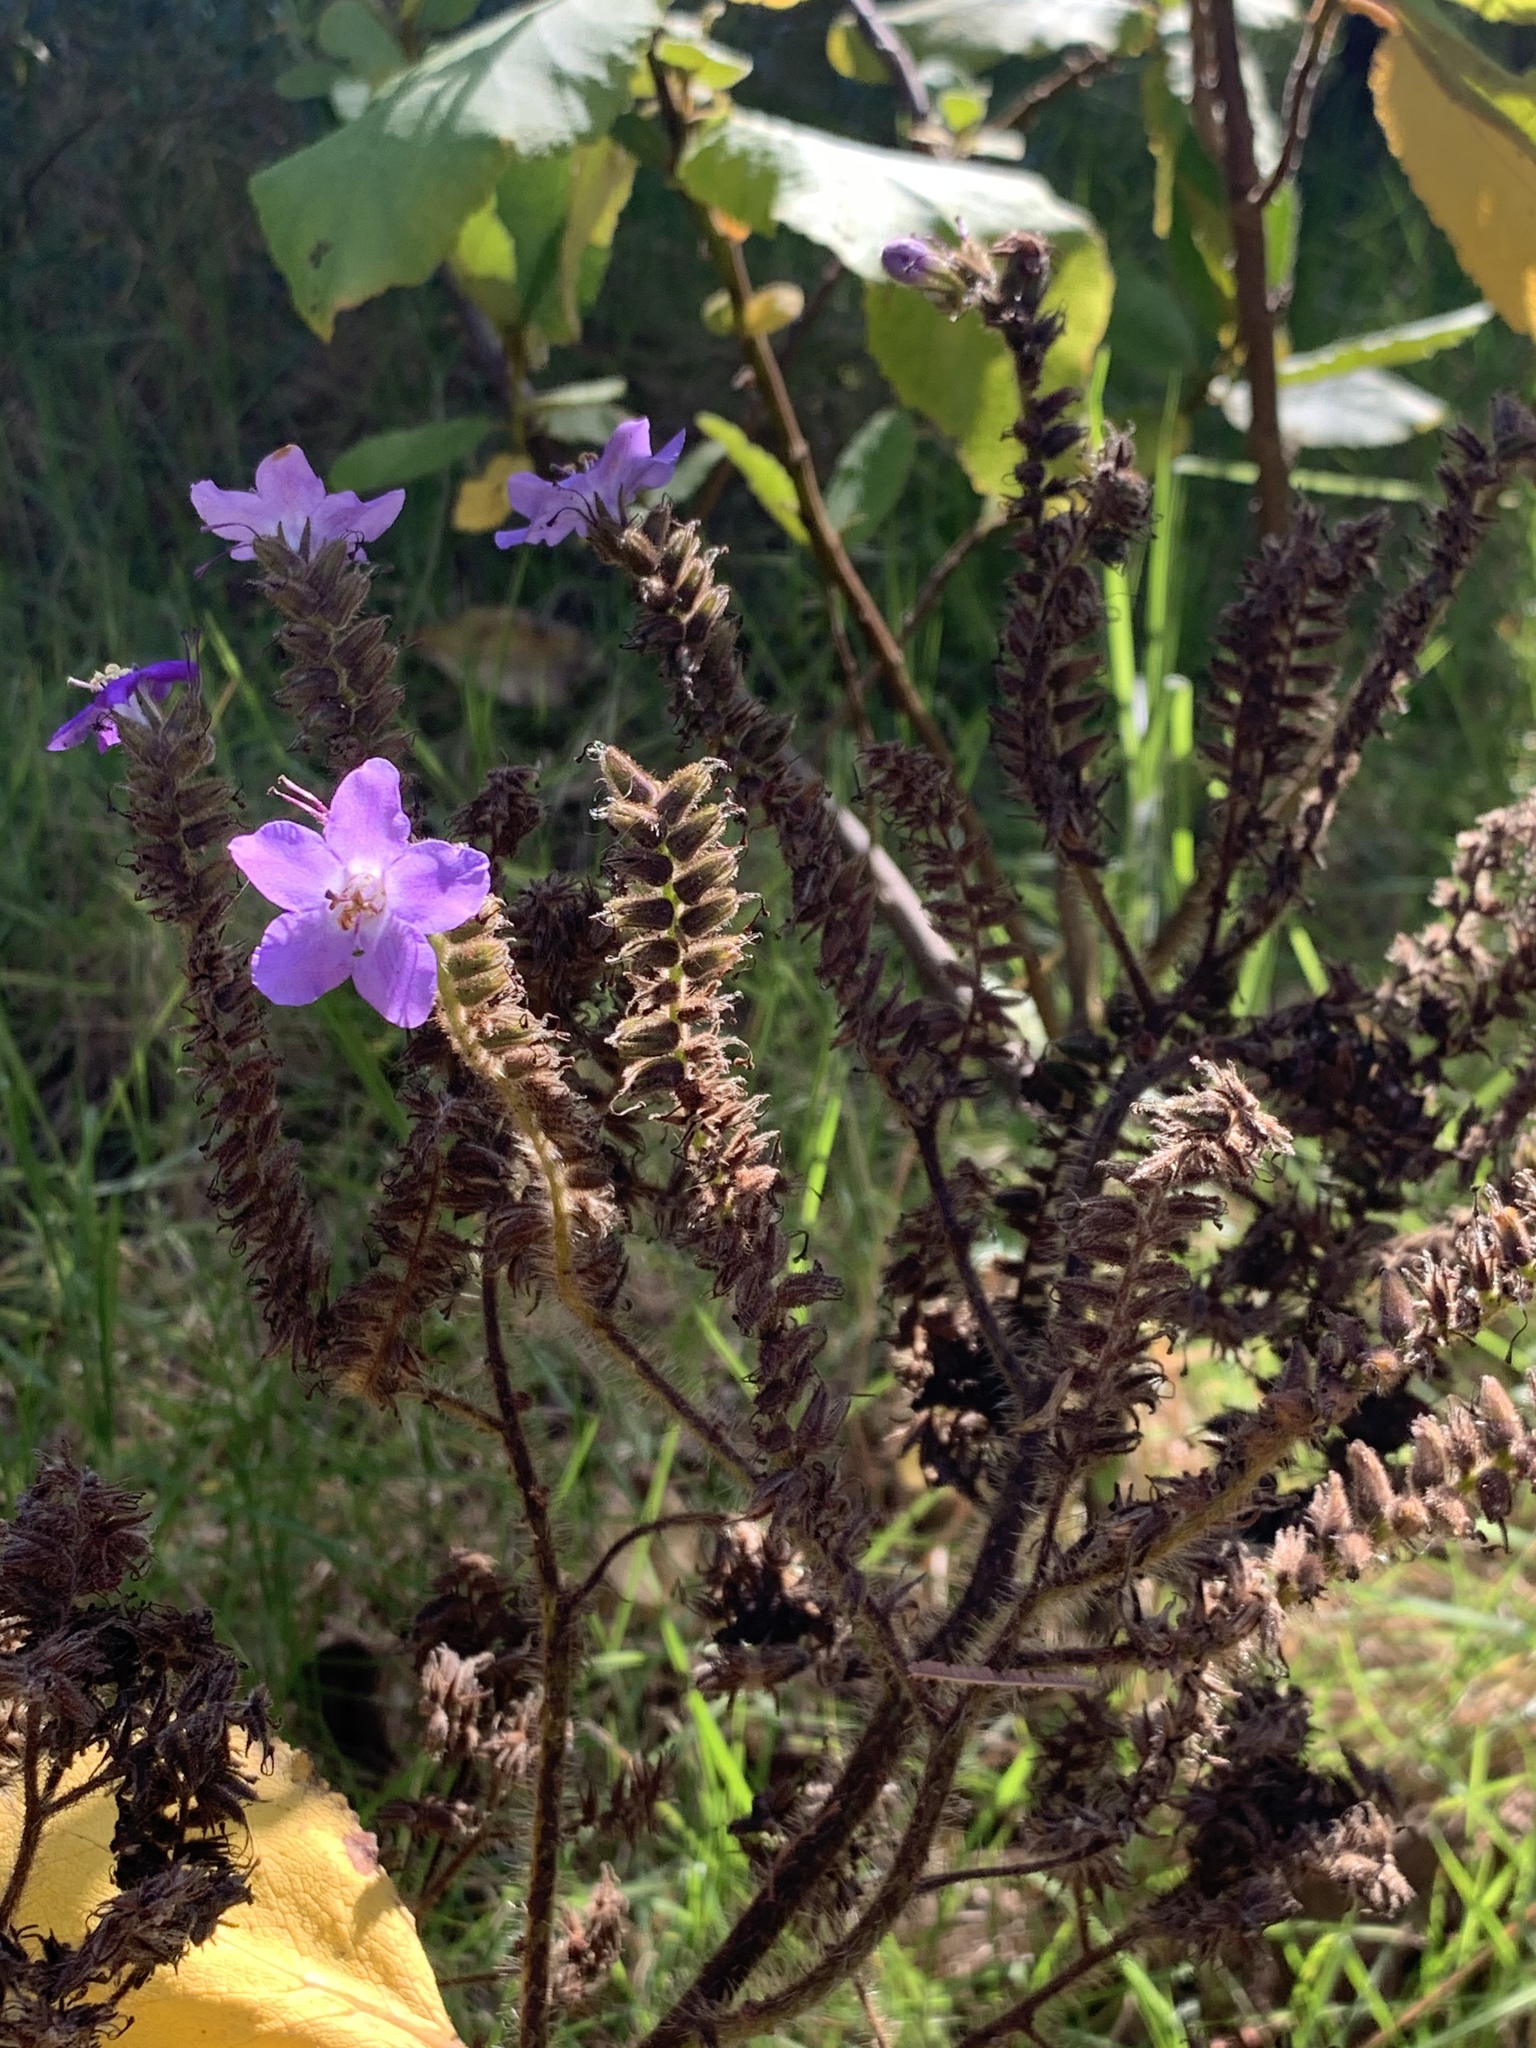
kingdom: Plantae
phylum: Tracheophyta
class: Magnoliopsida
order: Boraginales
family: Namaceae
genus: Wigandia
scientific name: Wigandia urens
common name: Caracus wigandia
